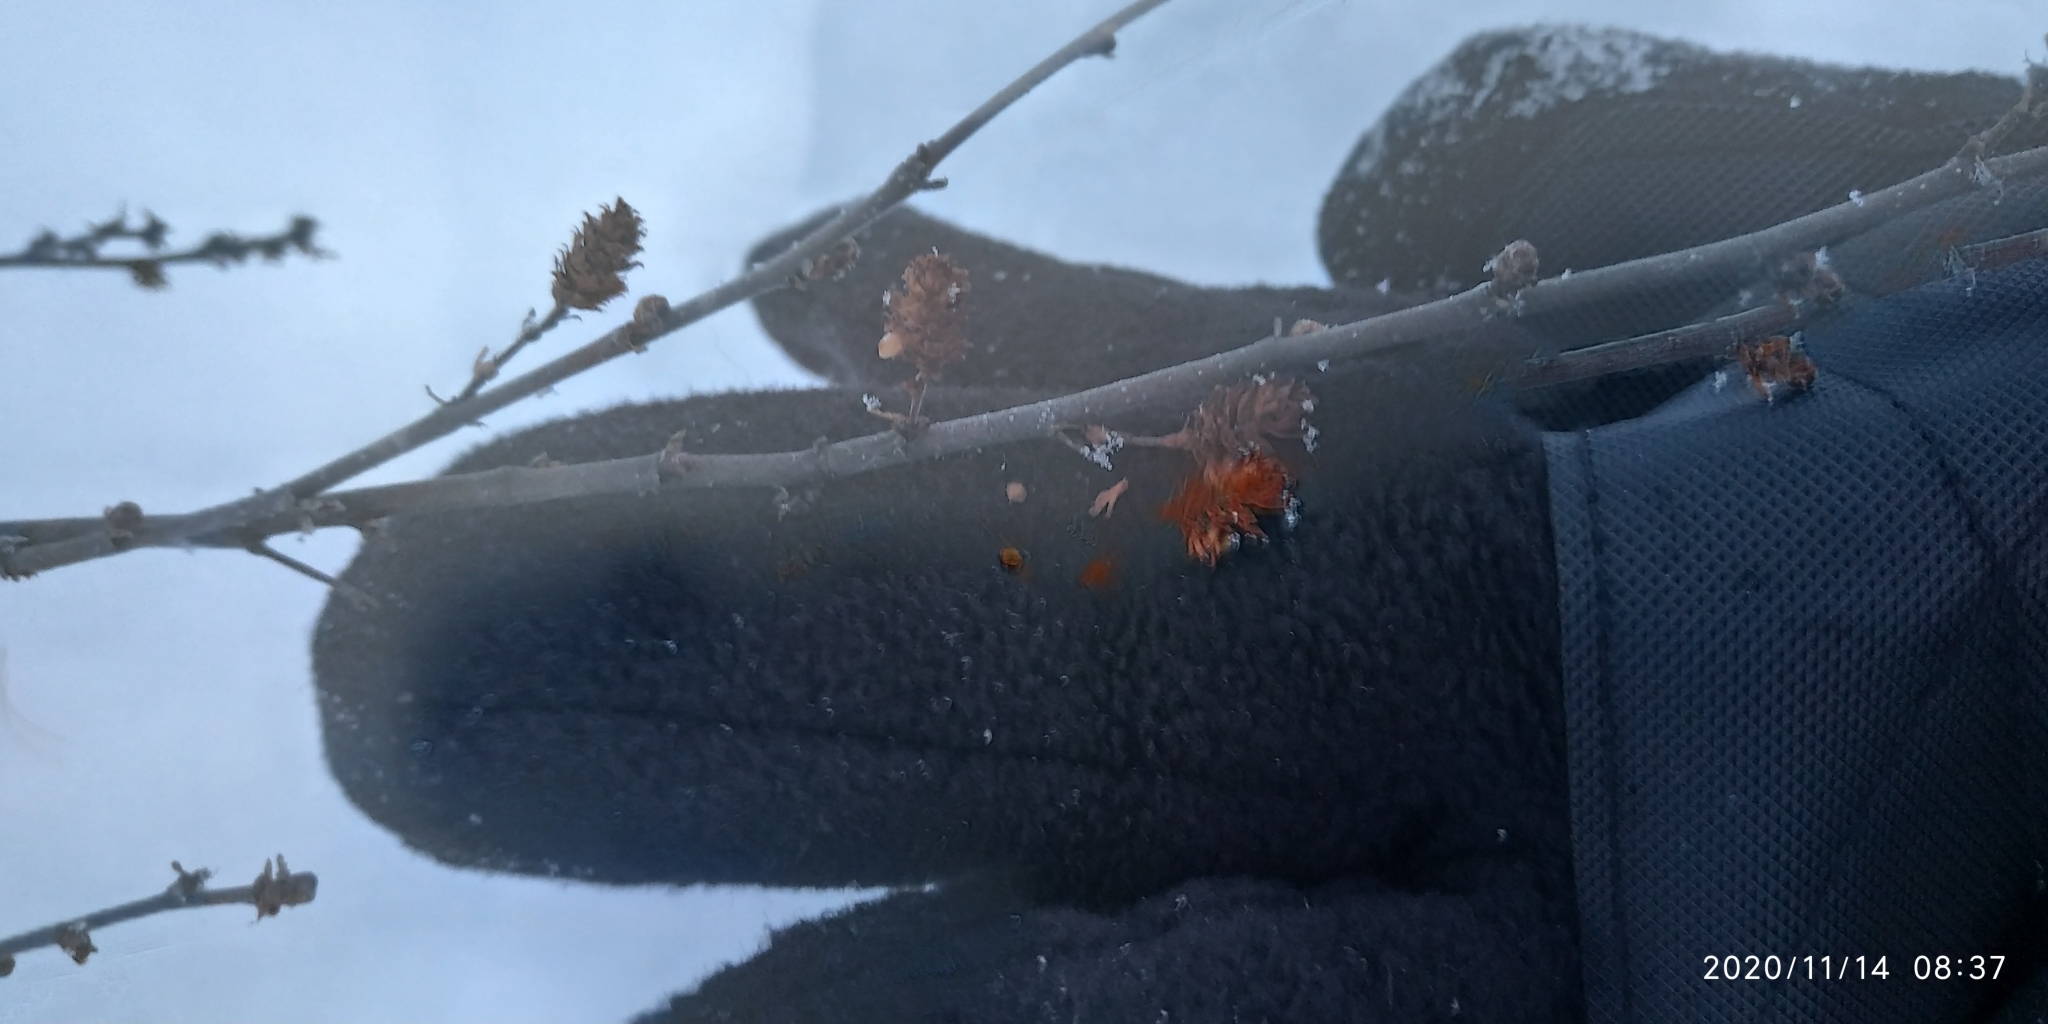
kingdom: Plantae
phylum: Tracheophyta
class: Magnoliopsida
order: Fagales
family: Betulaceae
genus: Betula
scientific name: Betula nana
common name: Arctic dwarf birch
